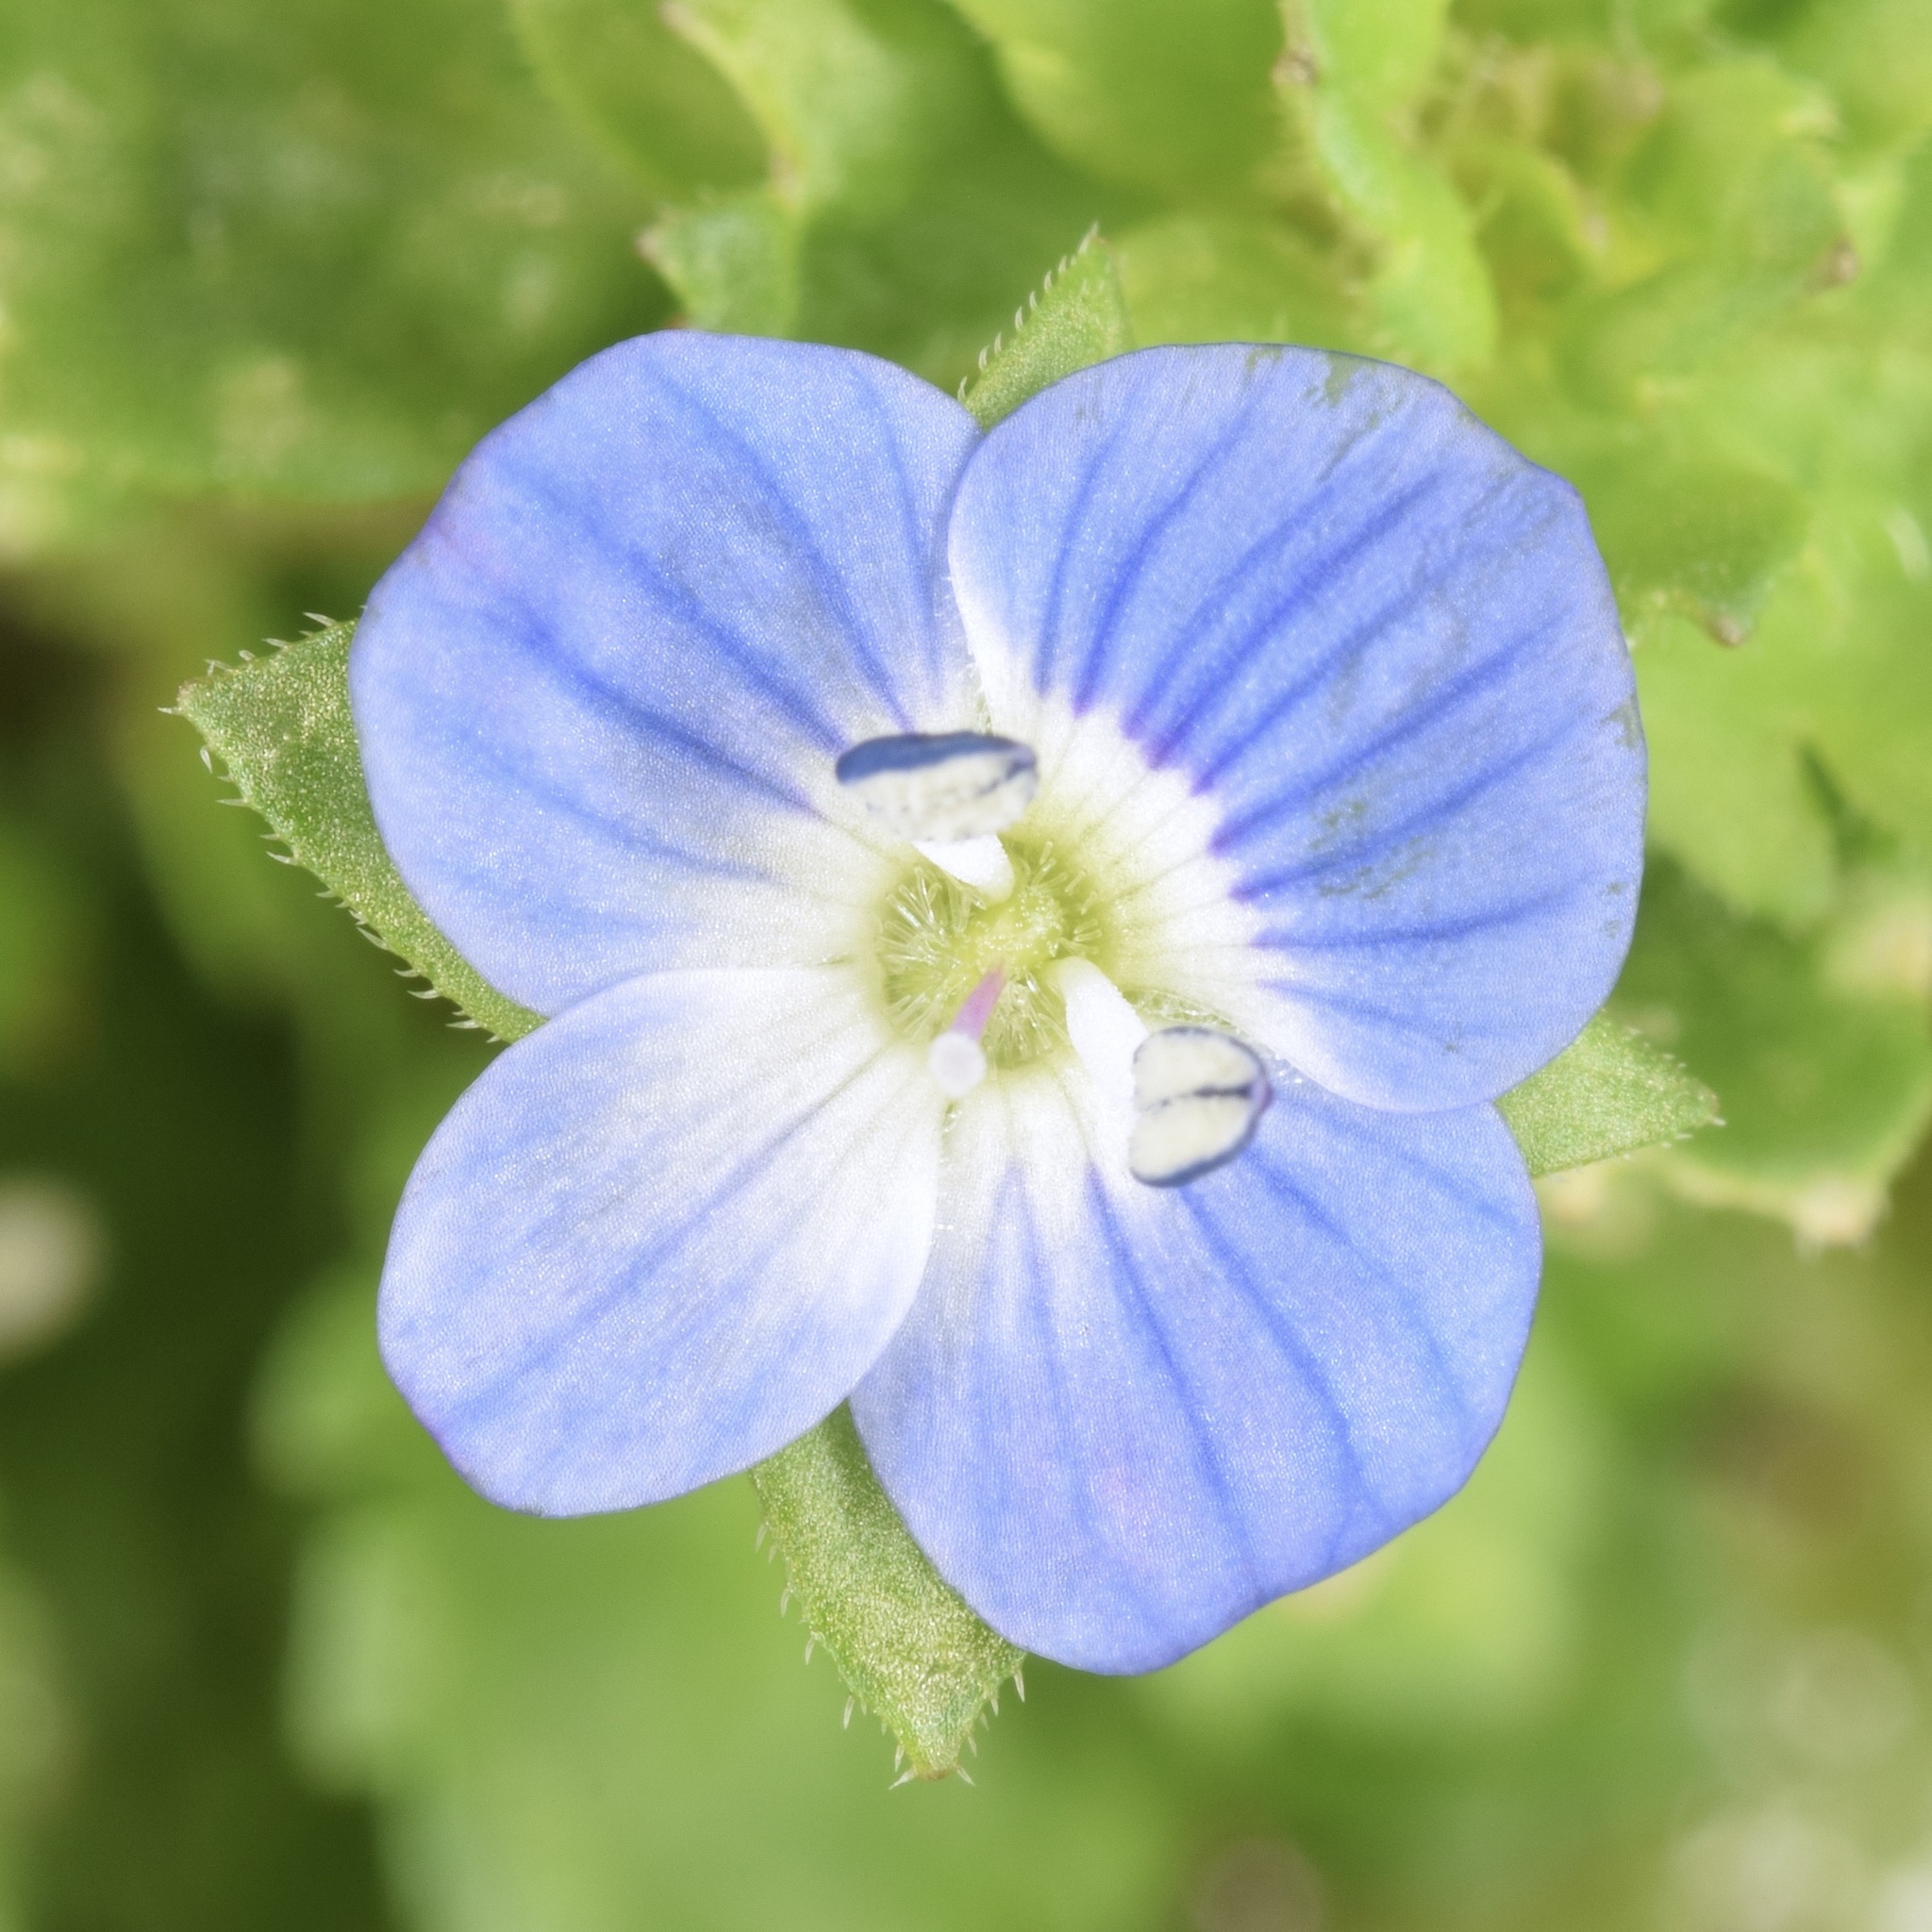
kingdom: Plantae
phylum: Tracheophyta
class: Magnoliopsida
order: Lamiales
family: Plantaginaceae
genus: Veronica
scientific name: Veronica persica
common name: Common field-speedwell
